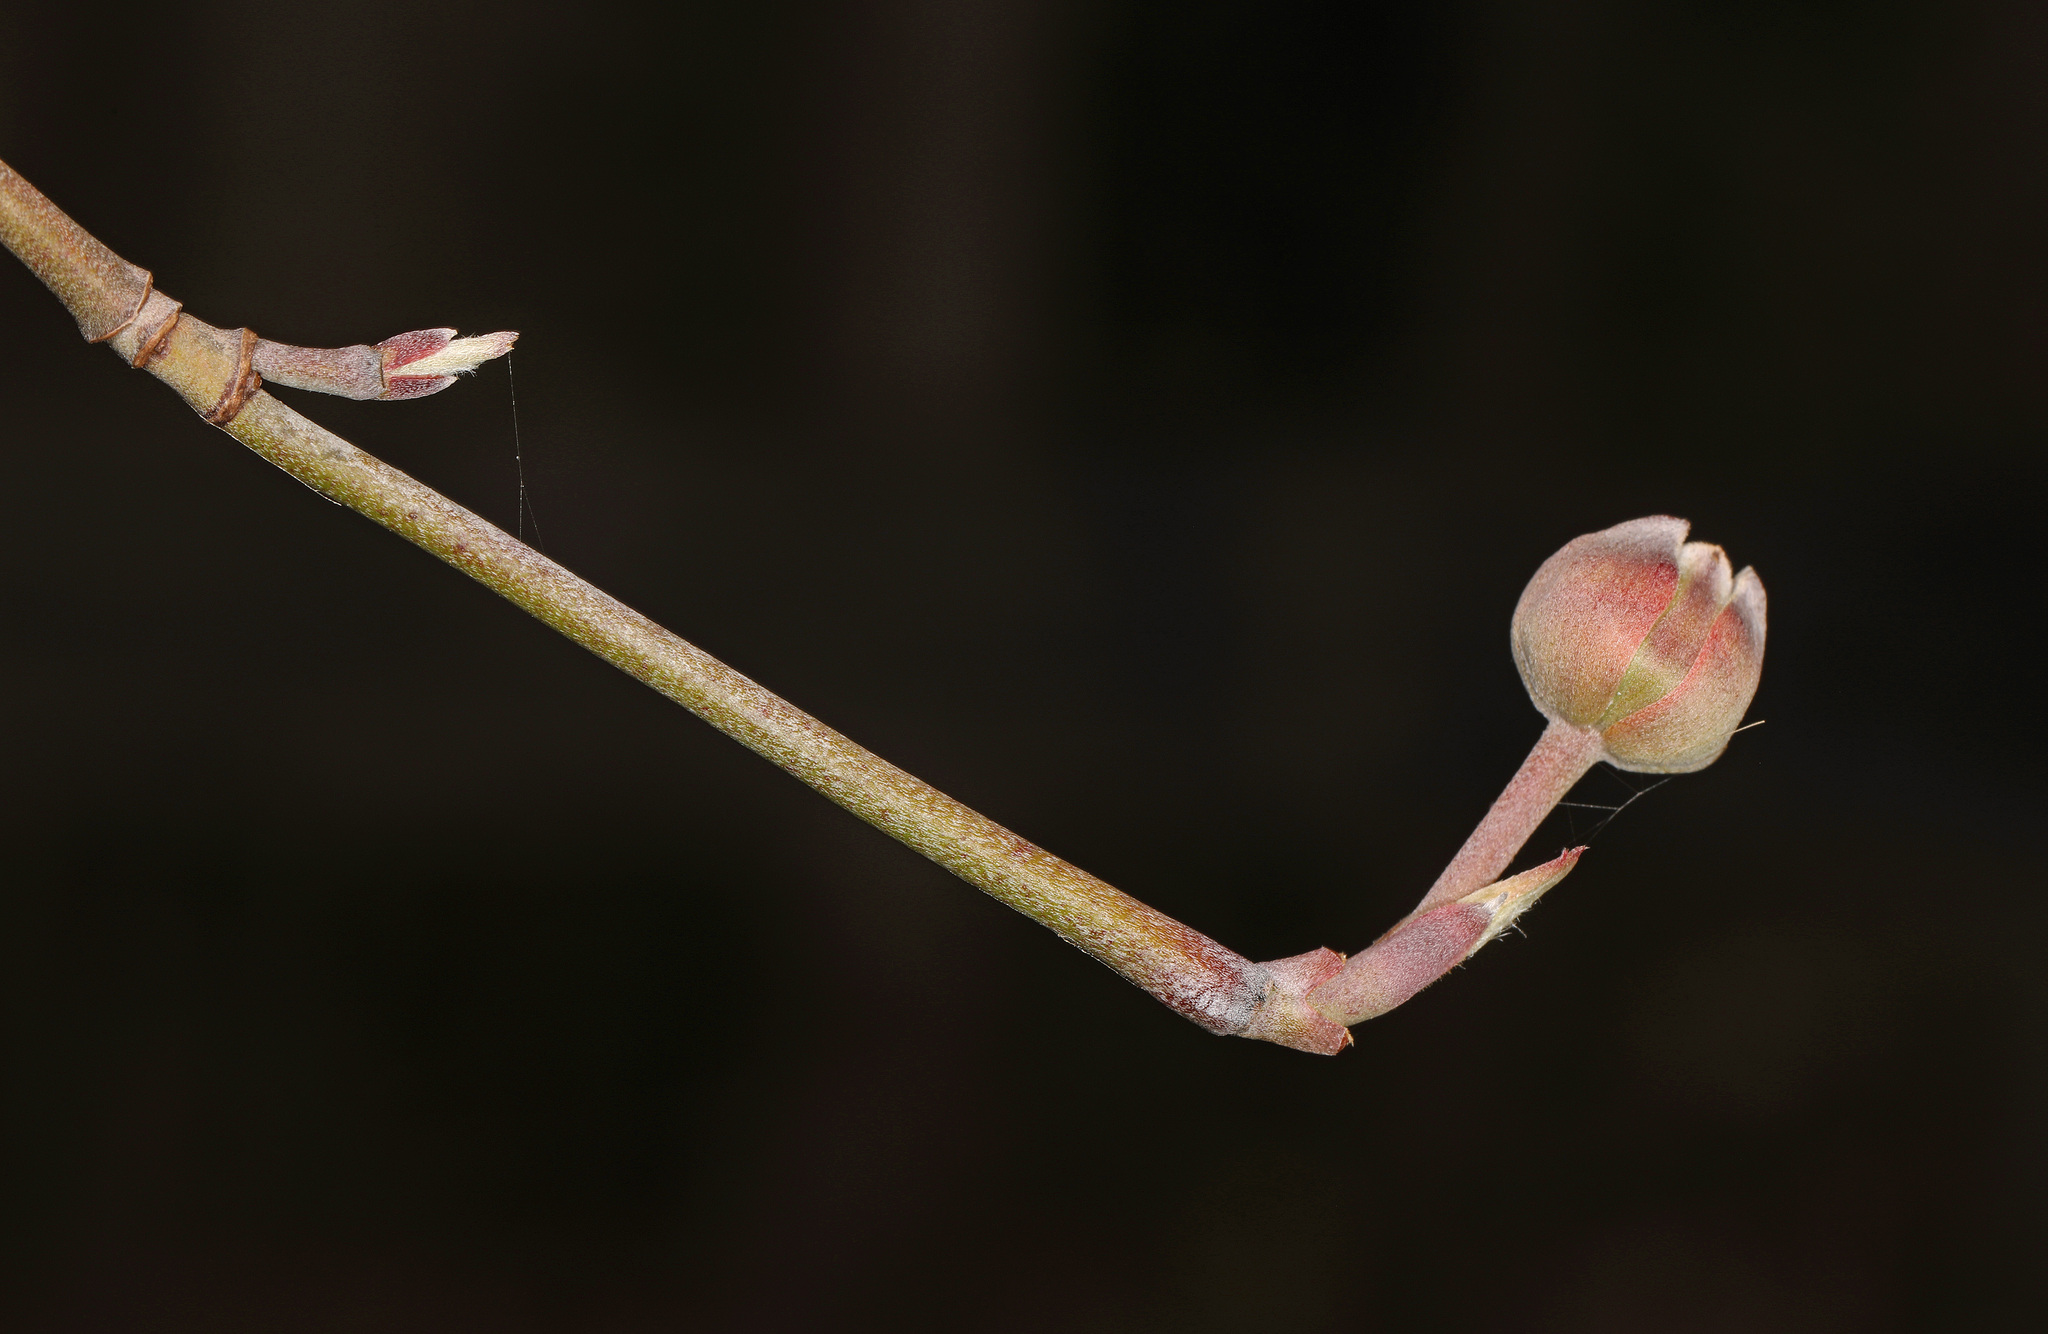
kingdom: Plantae
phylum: Tracheophyta
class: Magnoliopsida
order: Cornales
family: Cornaceae
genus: Cornus
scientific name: Cornus florida
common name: Flowering dogwood
